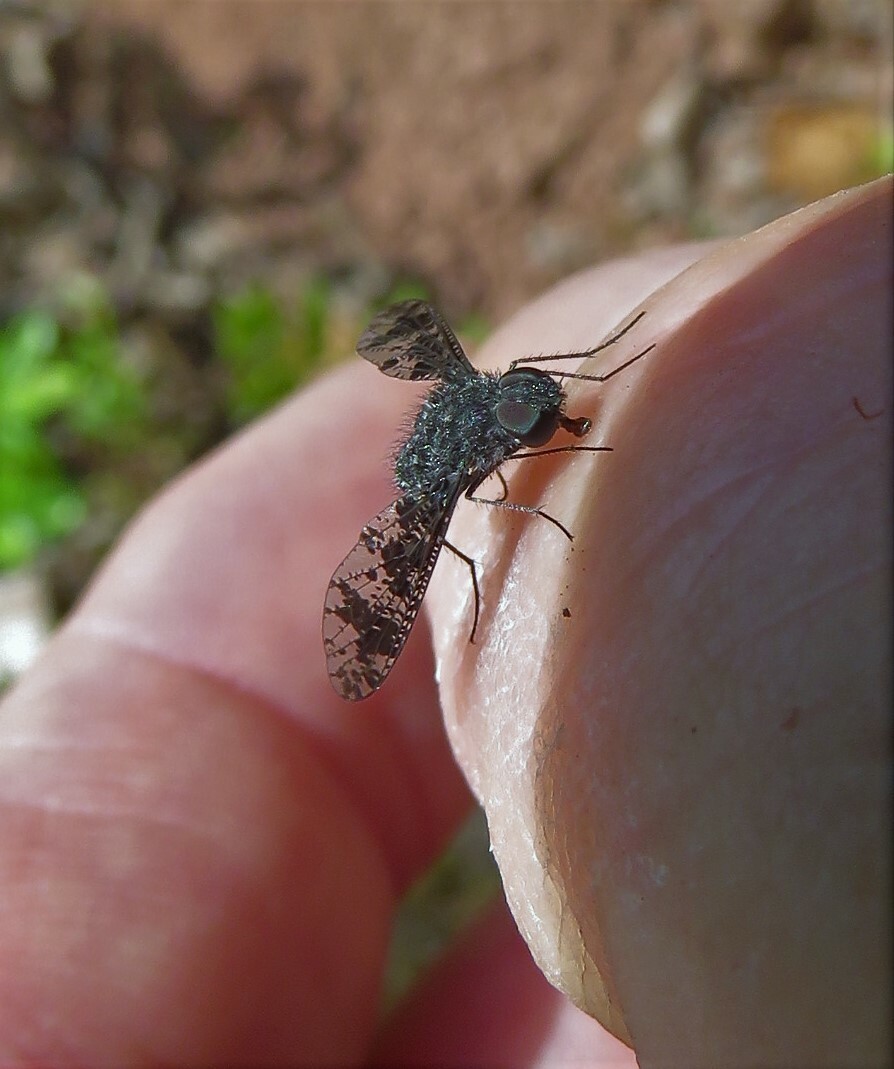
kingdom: Animalia
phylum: Arthropoda
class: Insecta
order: Diptera
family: Bombyliidae
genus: Anthrax
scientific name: Anthrax irroratus
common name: Spotted bee fly
